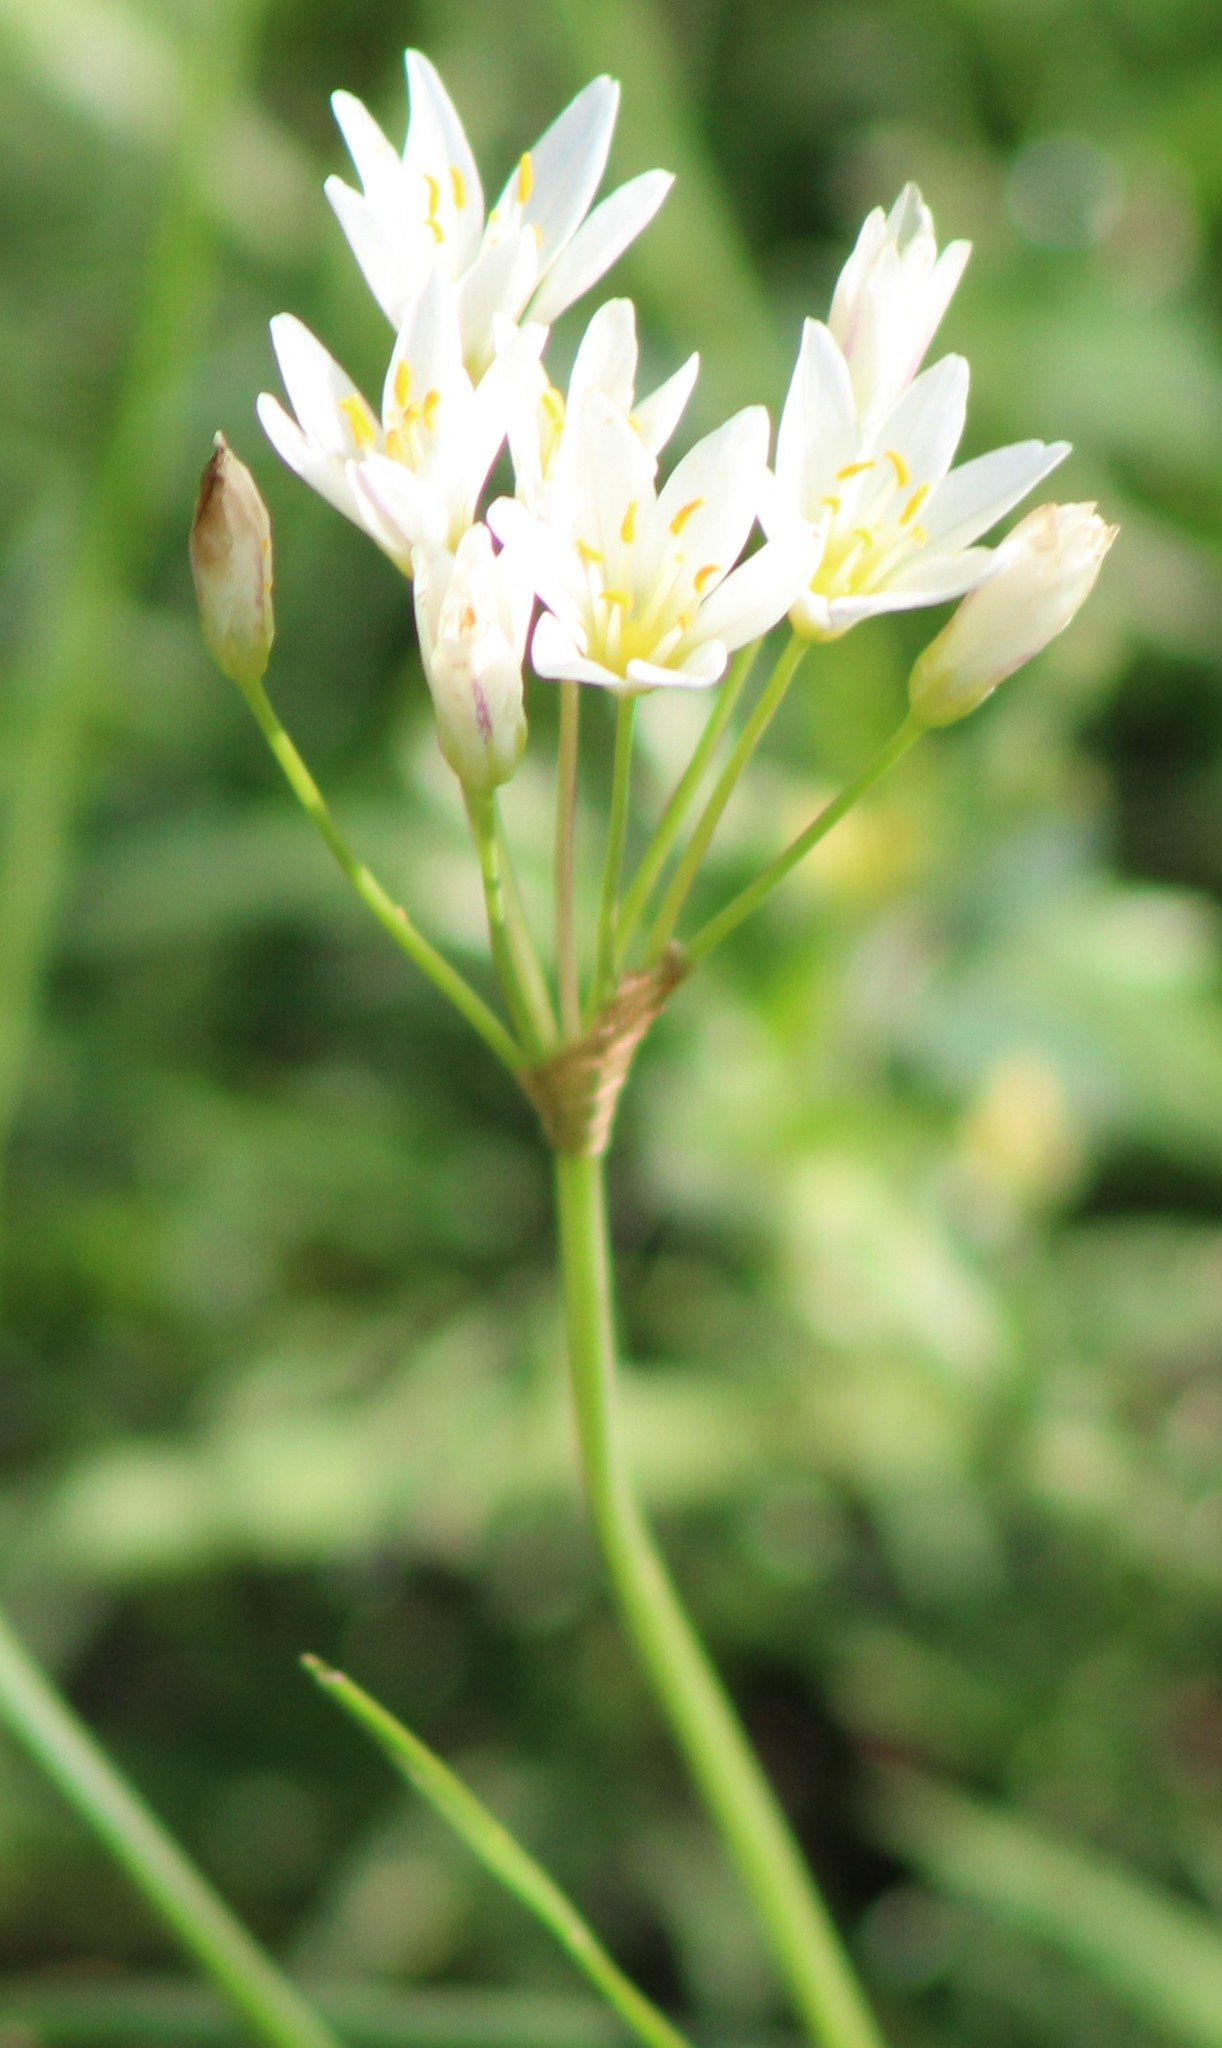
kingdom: Plantae
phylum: Tracheophyta
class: Liliopsida
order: Asparagales
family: Amaryllidaceae
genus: Nothoscordum
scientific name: Nothoscordum bivalve
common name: Crow-poison
